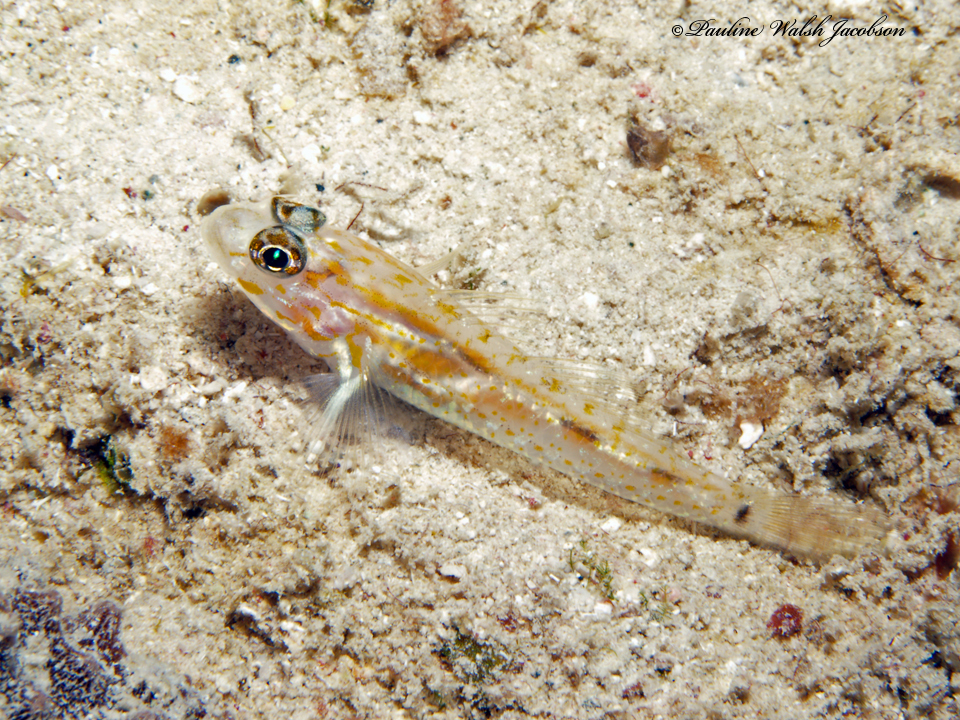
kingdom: Animalia
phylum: Chordata
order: Perciformes
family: Gobiidae
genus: Coryphopterus
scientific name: Coryphopterus eidolon
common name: Pallid goby
